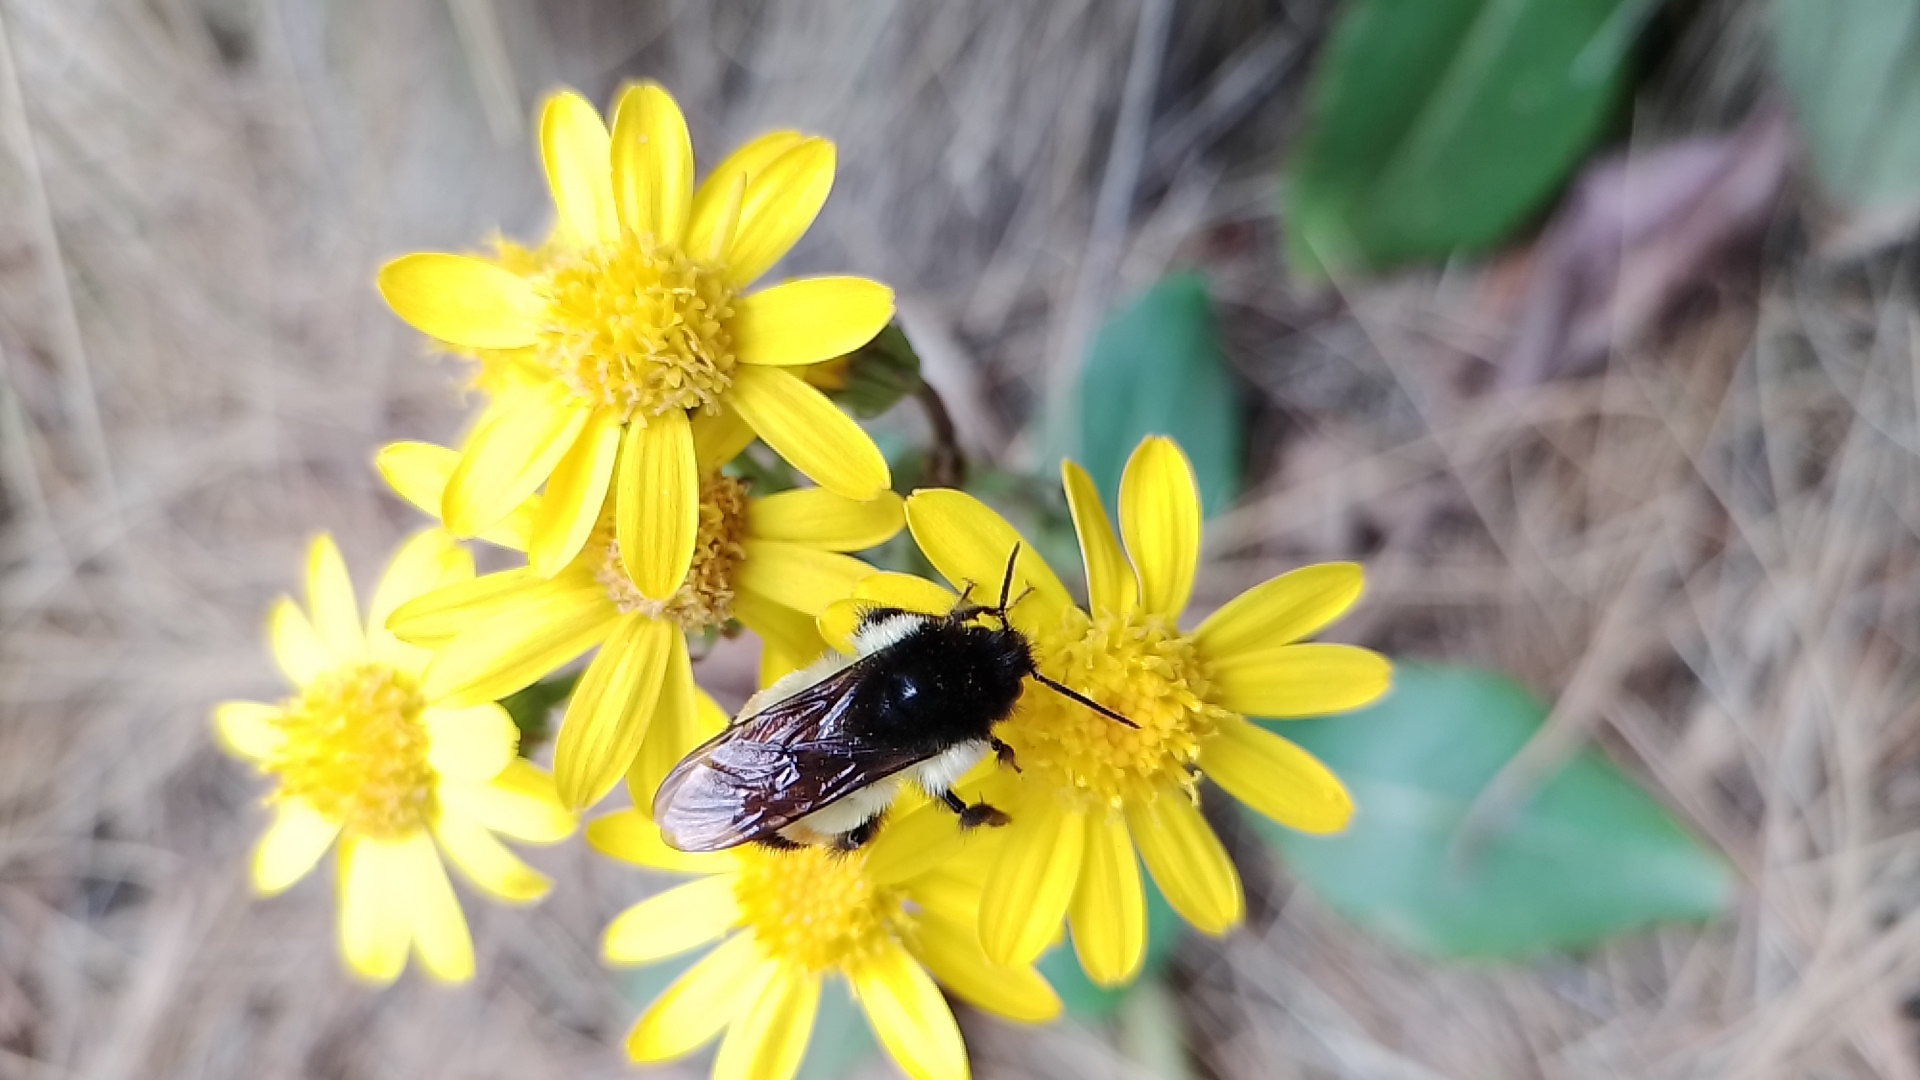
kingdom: Animalia
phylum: Arthropoda
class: Insecta
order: Hymenoptera
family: Apidae
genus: Bombus
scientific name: Bombus ephippiatus
